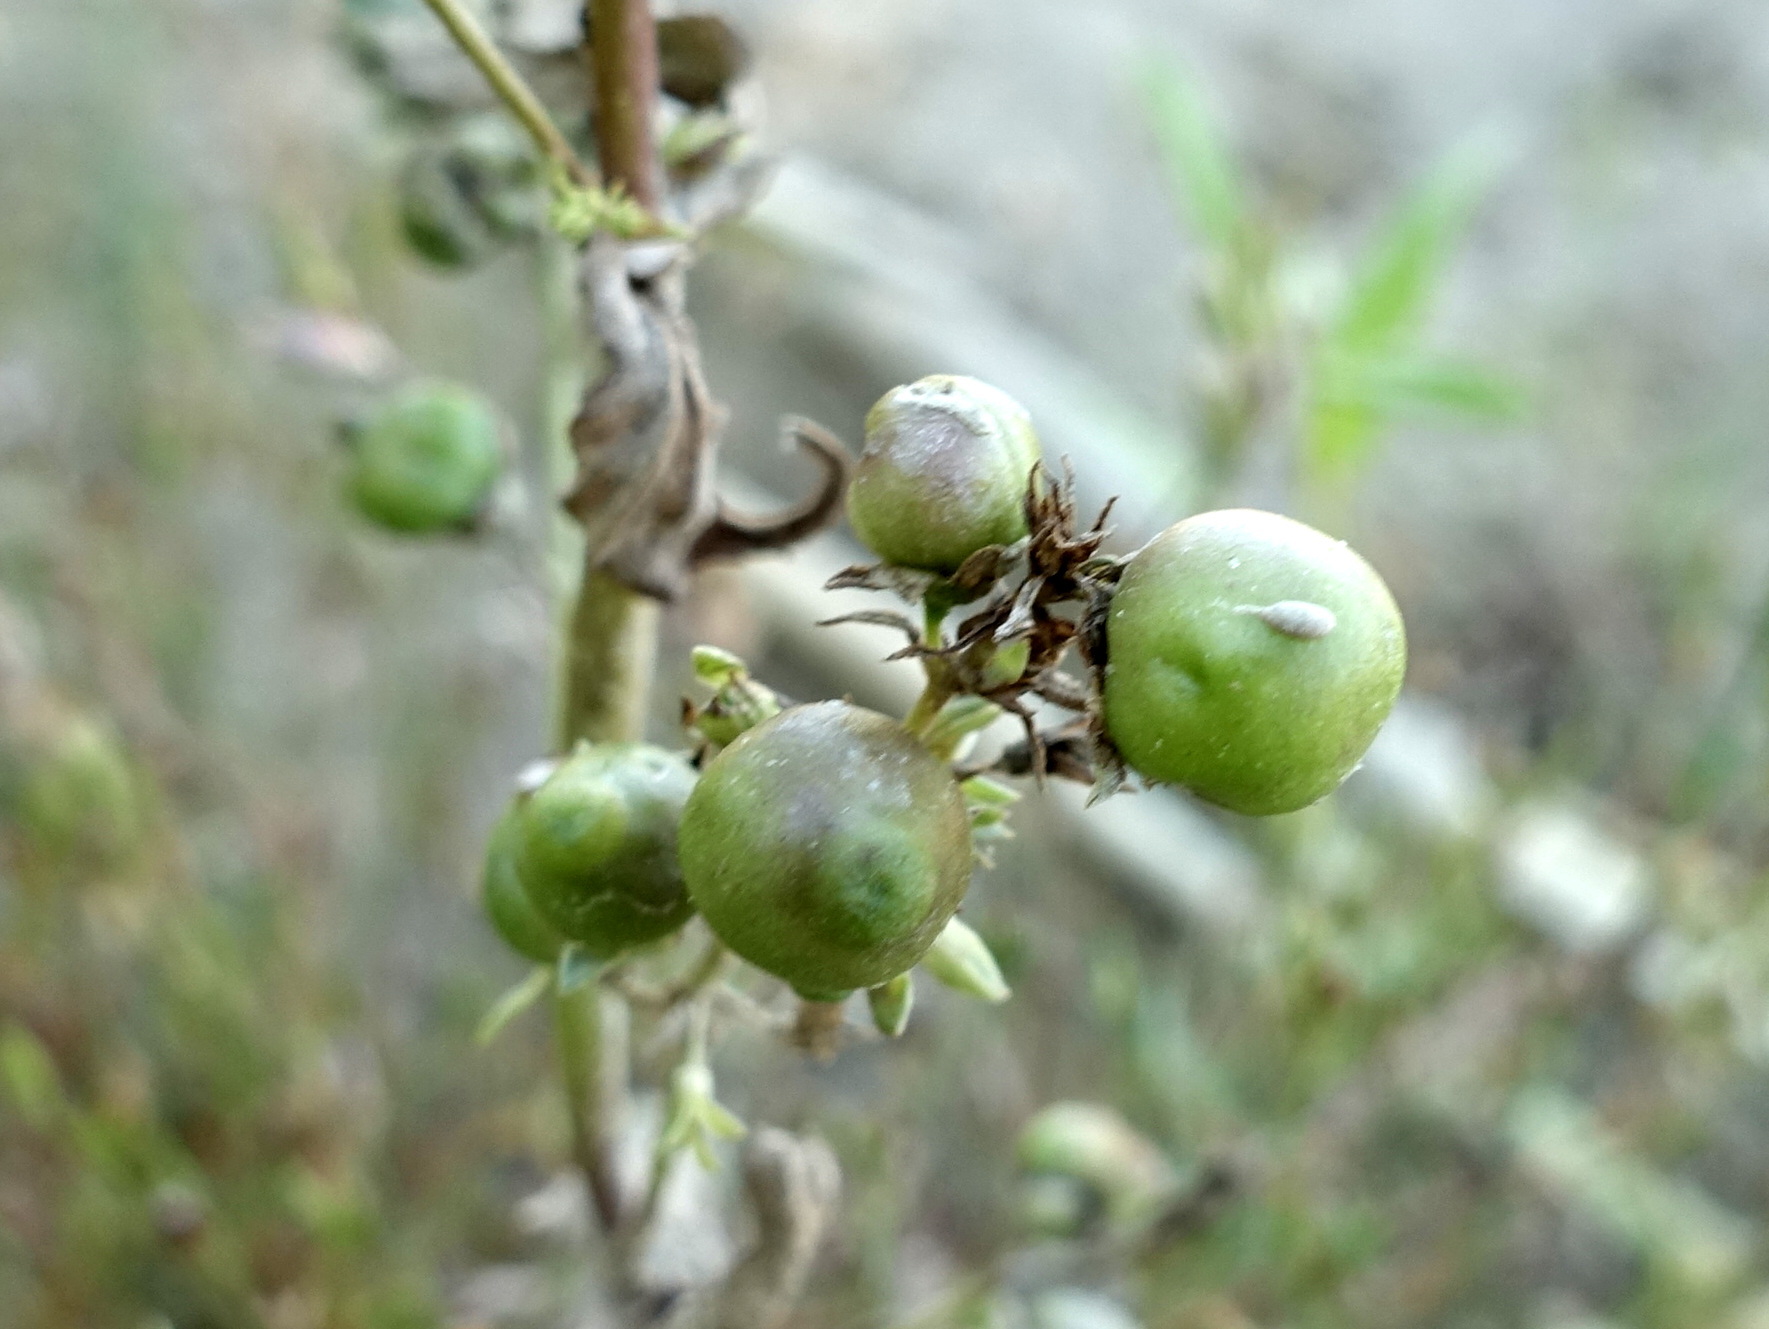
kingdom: Animalia
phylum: Arthropoda
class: Insecta
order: Coleoptera
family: Curculionidae
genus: Gymnetron
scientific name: Gymnetron villosulum
